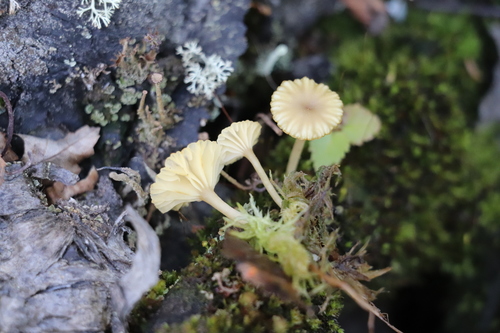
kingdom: Fungi
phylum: Basidiomycota
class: Agaricomycetes
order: Agaricales
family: Hygrophoraceae
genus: Lichenomphalia
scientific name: Lichenomphalia umbellifera
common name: Heath navel
